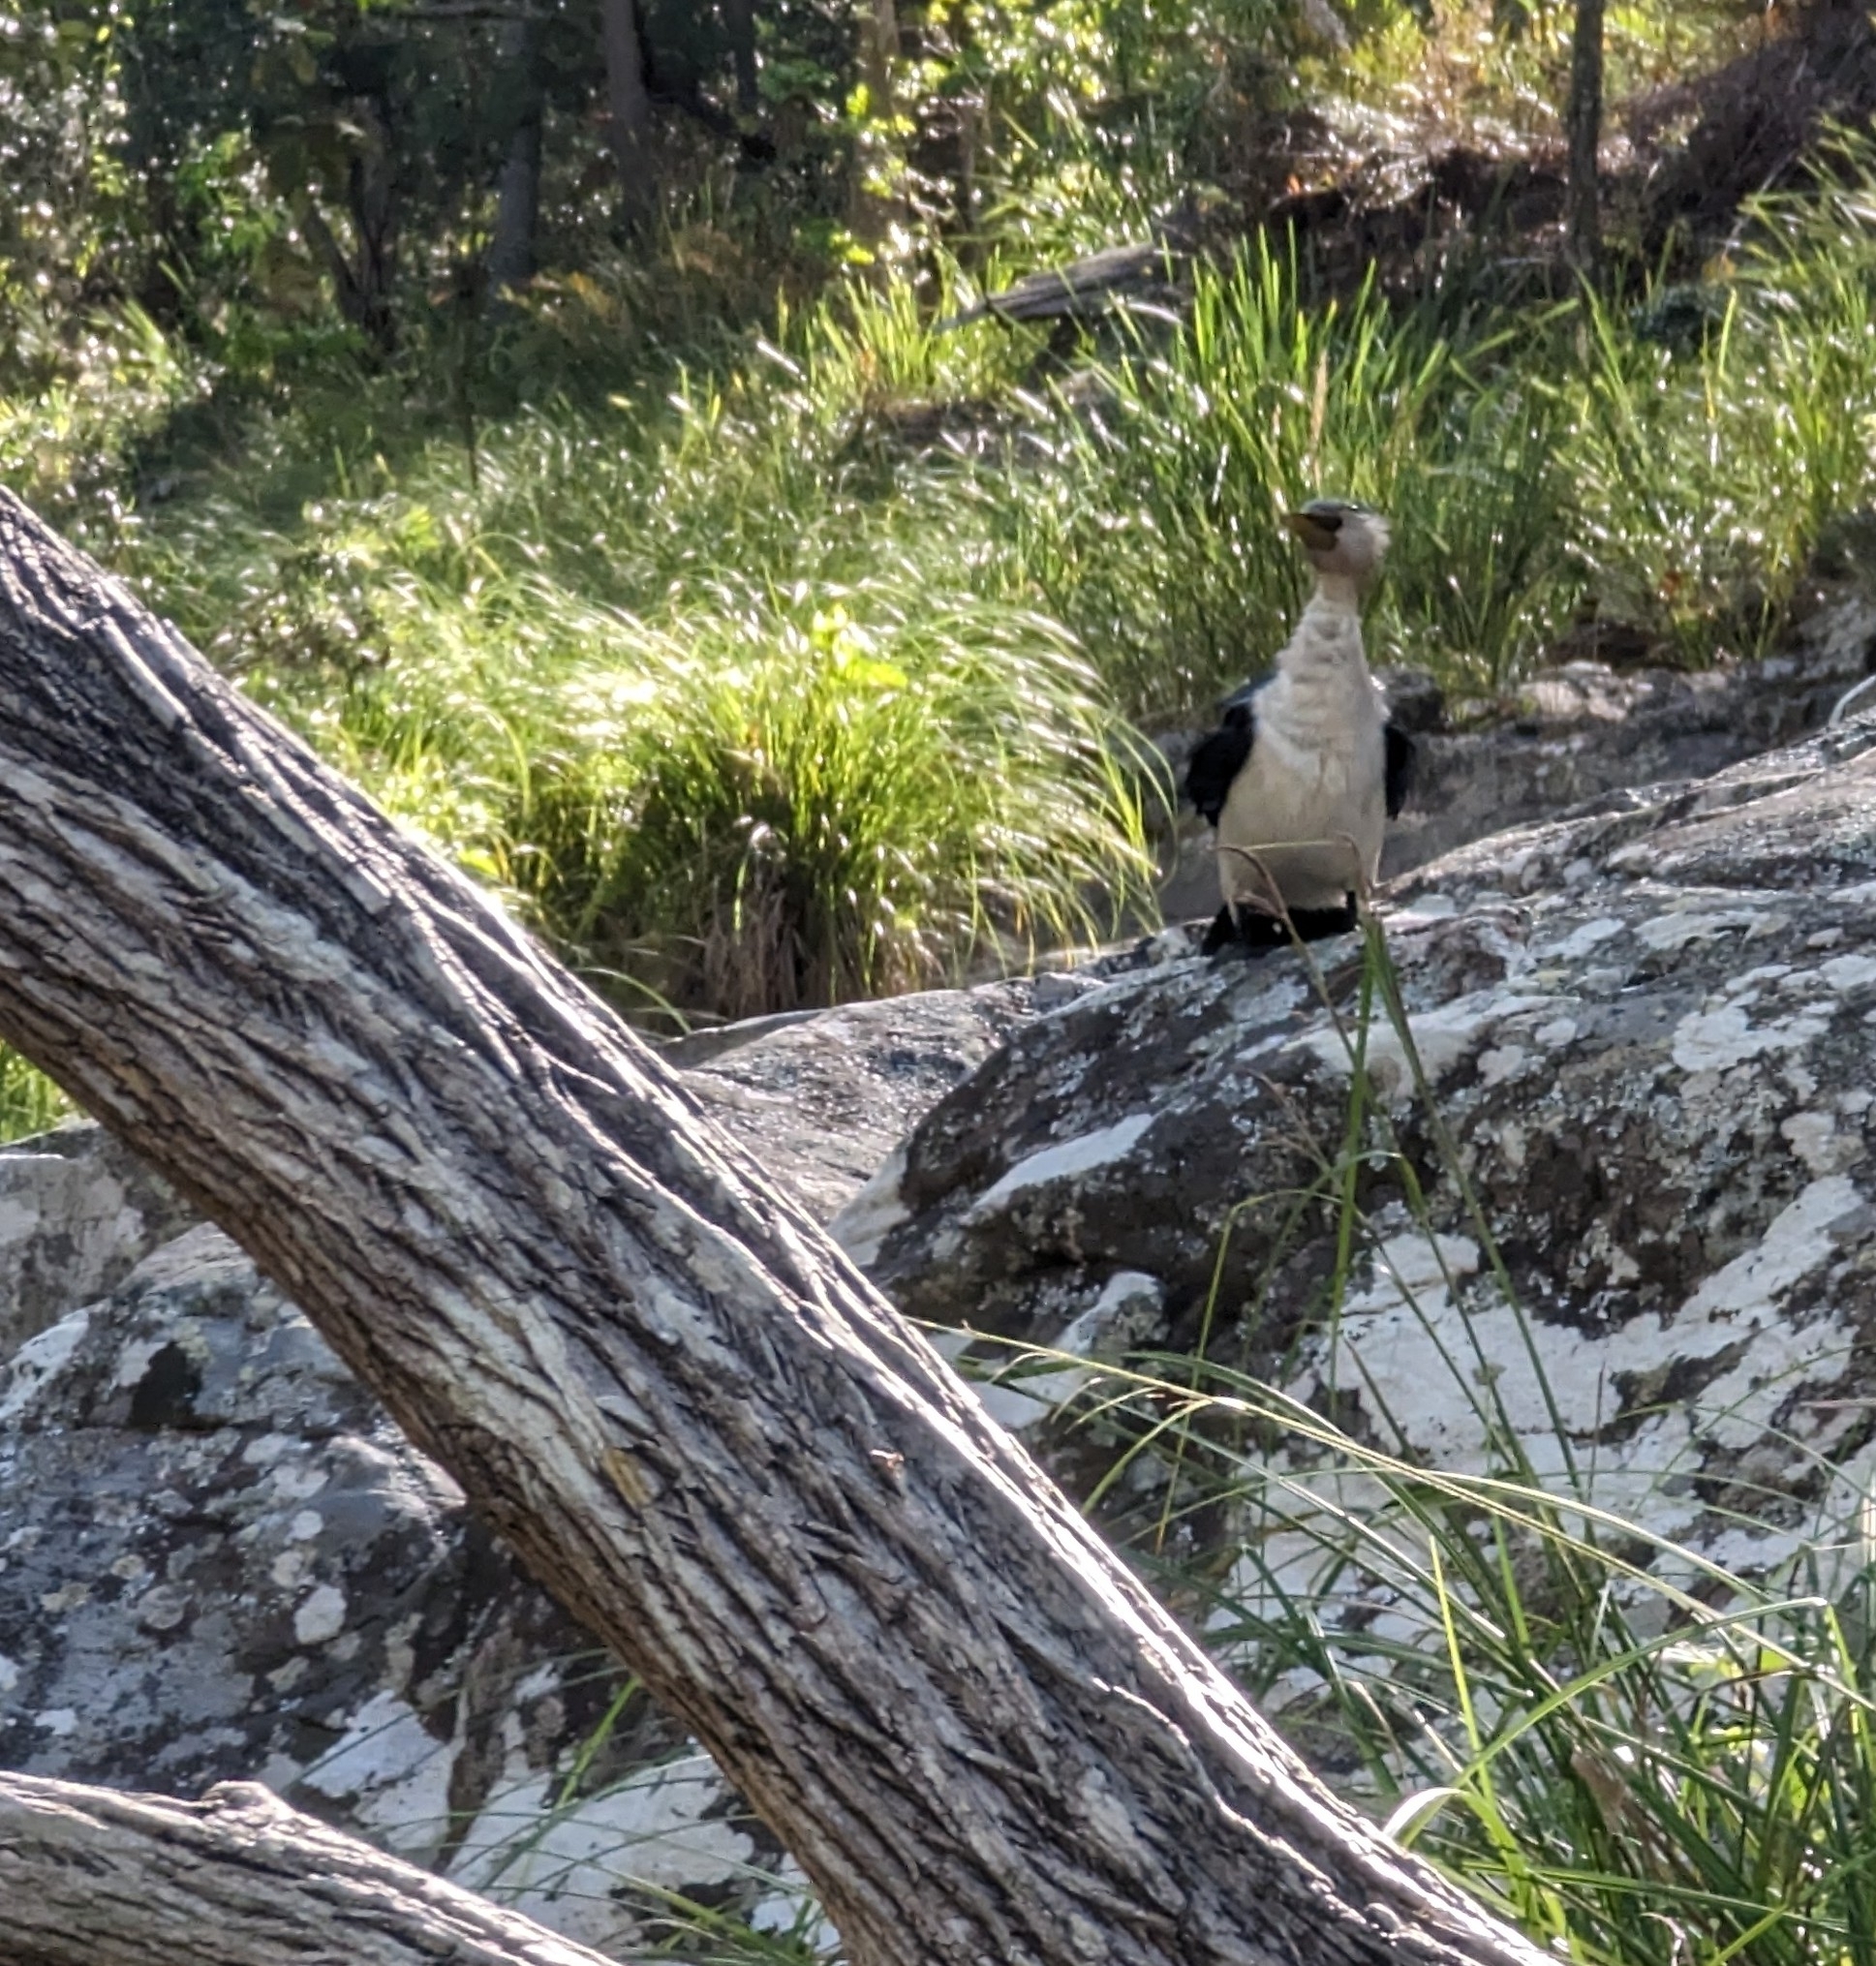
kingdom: Animalia
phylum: Chordata
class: Aves
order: Suliformes
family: Phalacrocoracidae
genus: Microcarbo
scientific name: Microcarbo melanoleucos
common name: Little pied cormorant
